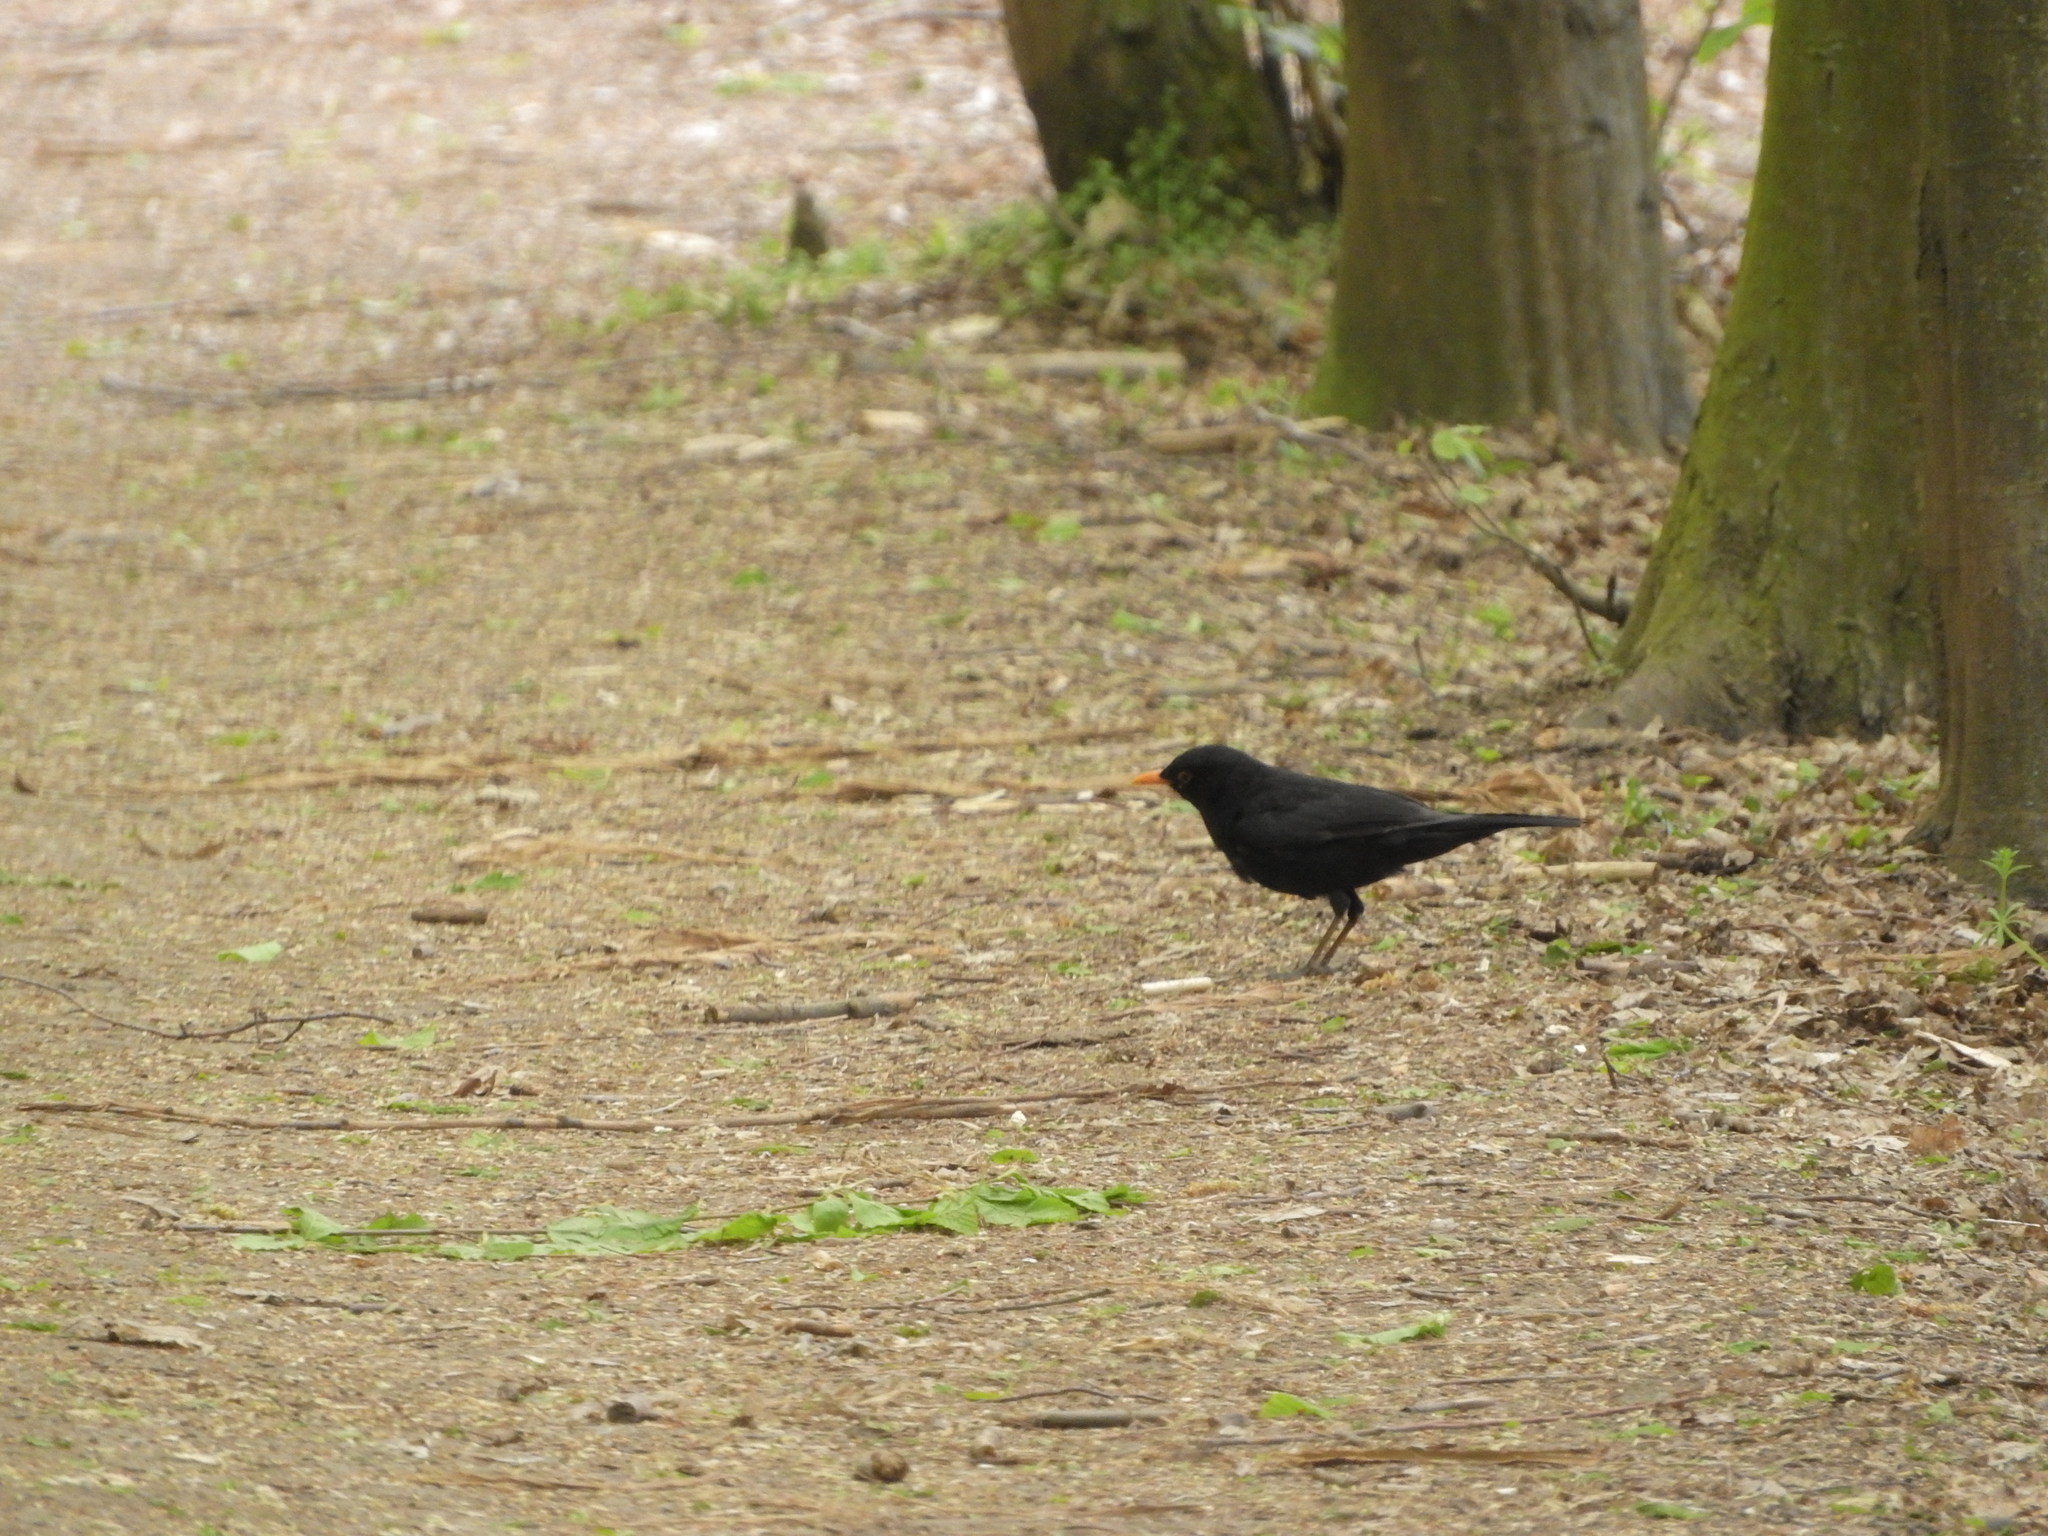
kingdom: Animalia
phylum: Chordata
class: Aves
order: Passeriformes
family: Turdidae
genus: Turdus
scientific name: Turdus merula
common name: Common blackbird
